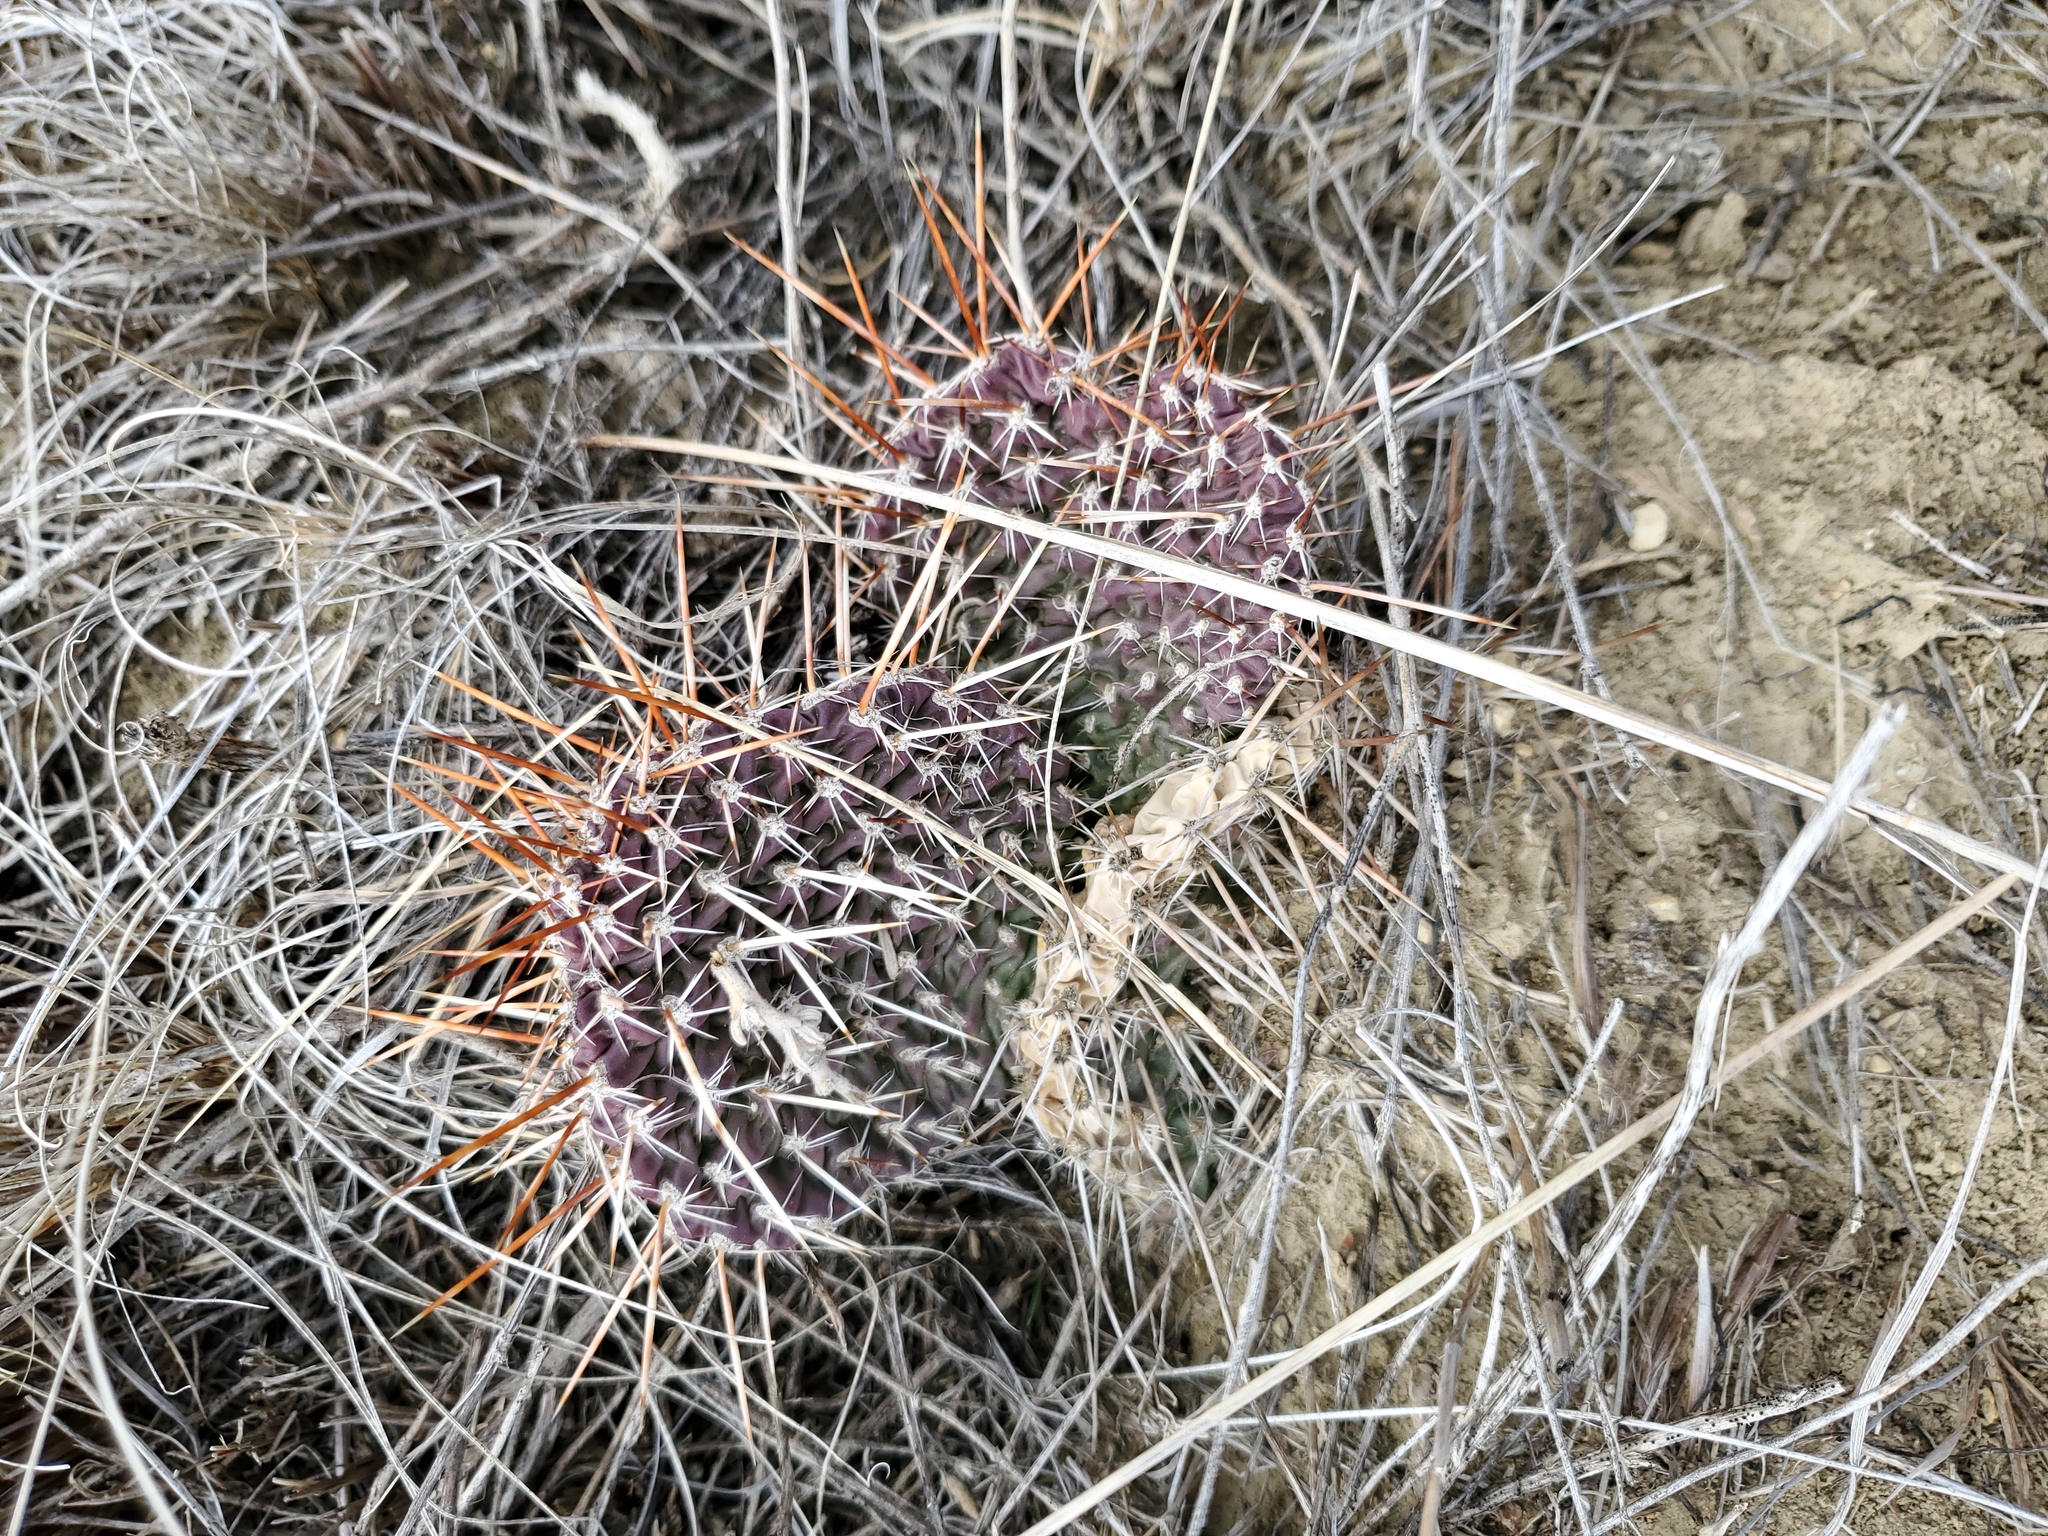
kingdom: Plantae
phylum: Tracheophyta
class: Magnoliopsida
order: Caryophyllales
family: Cactaceae
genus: Opuntia
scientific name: Opuntia polyacantha
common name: Plains prickly-pear
